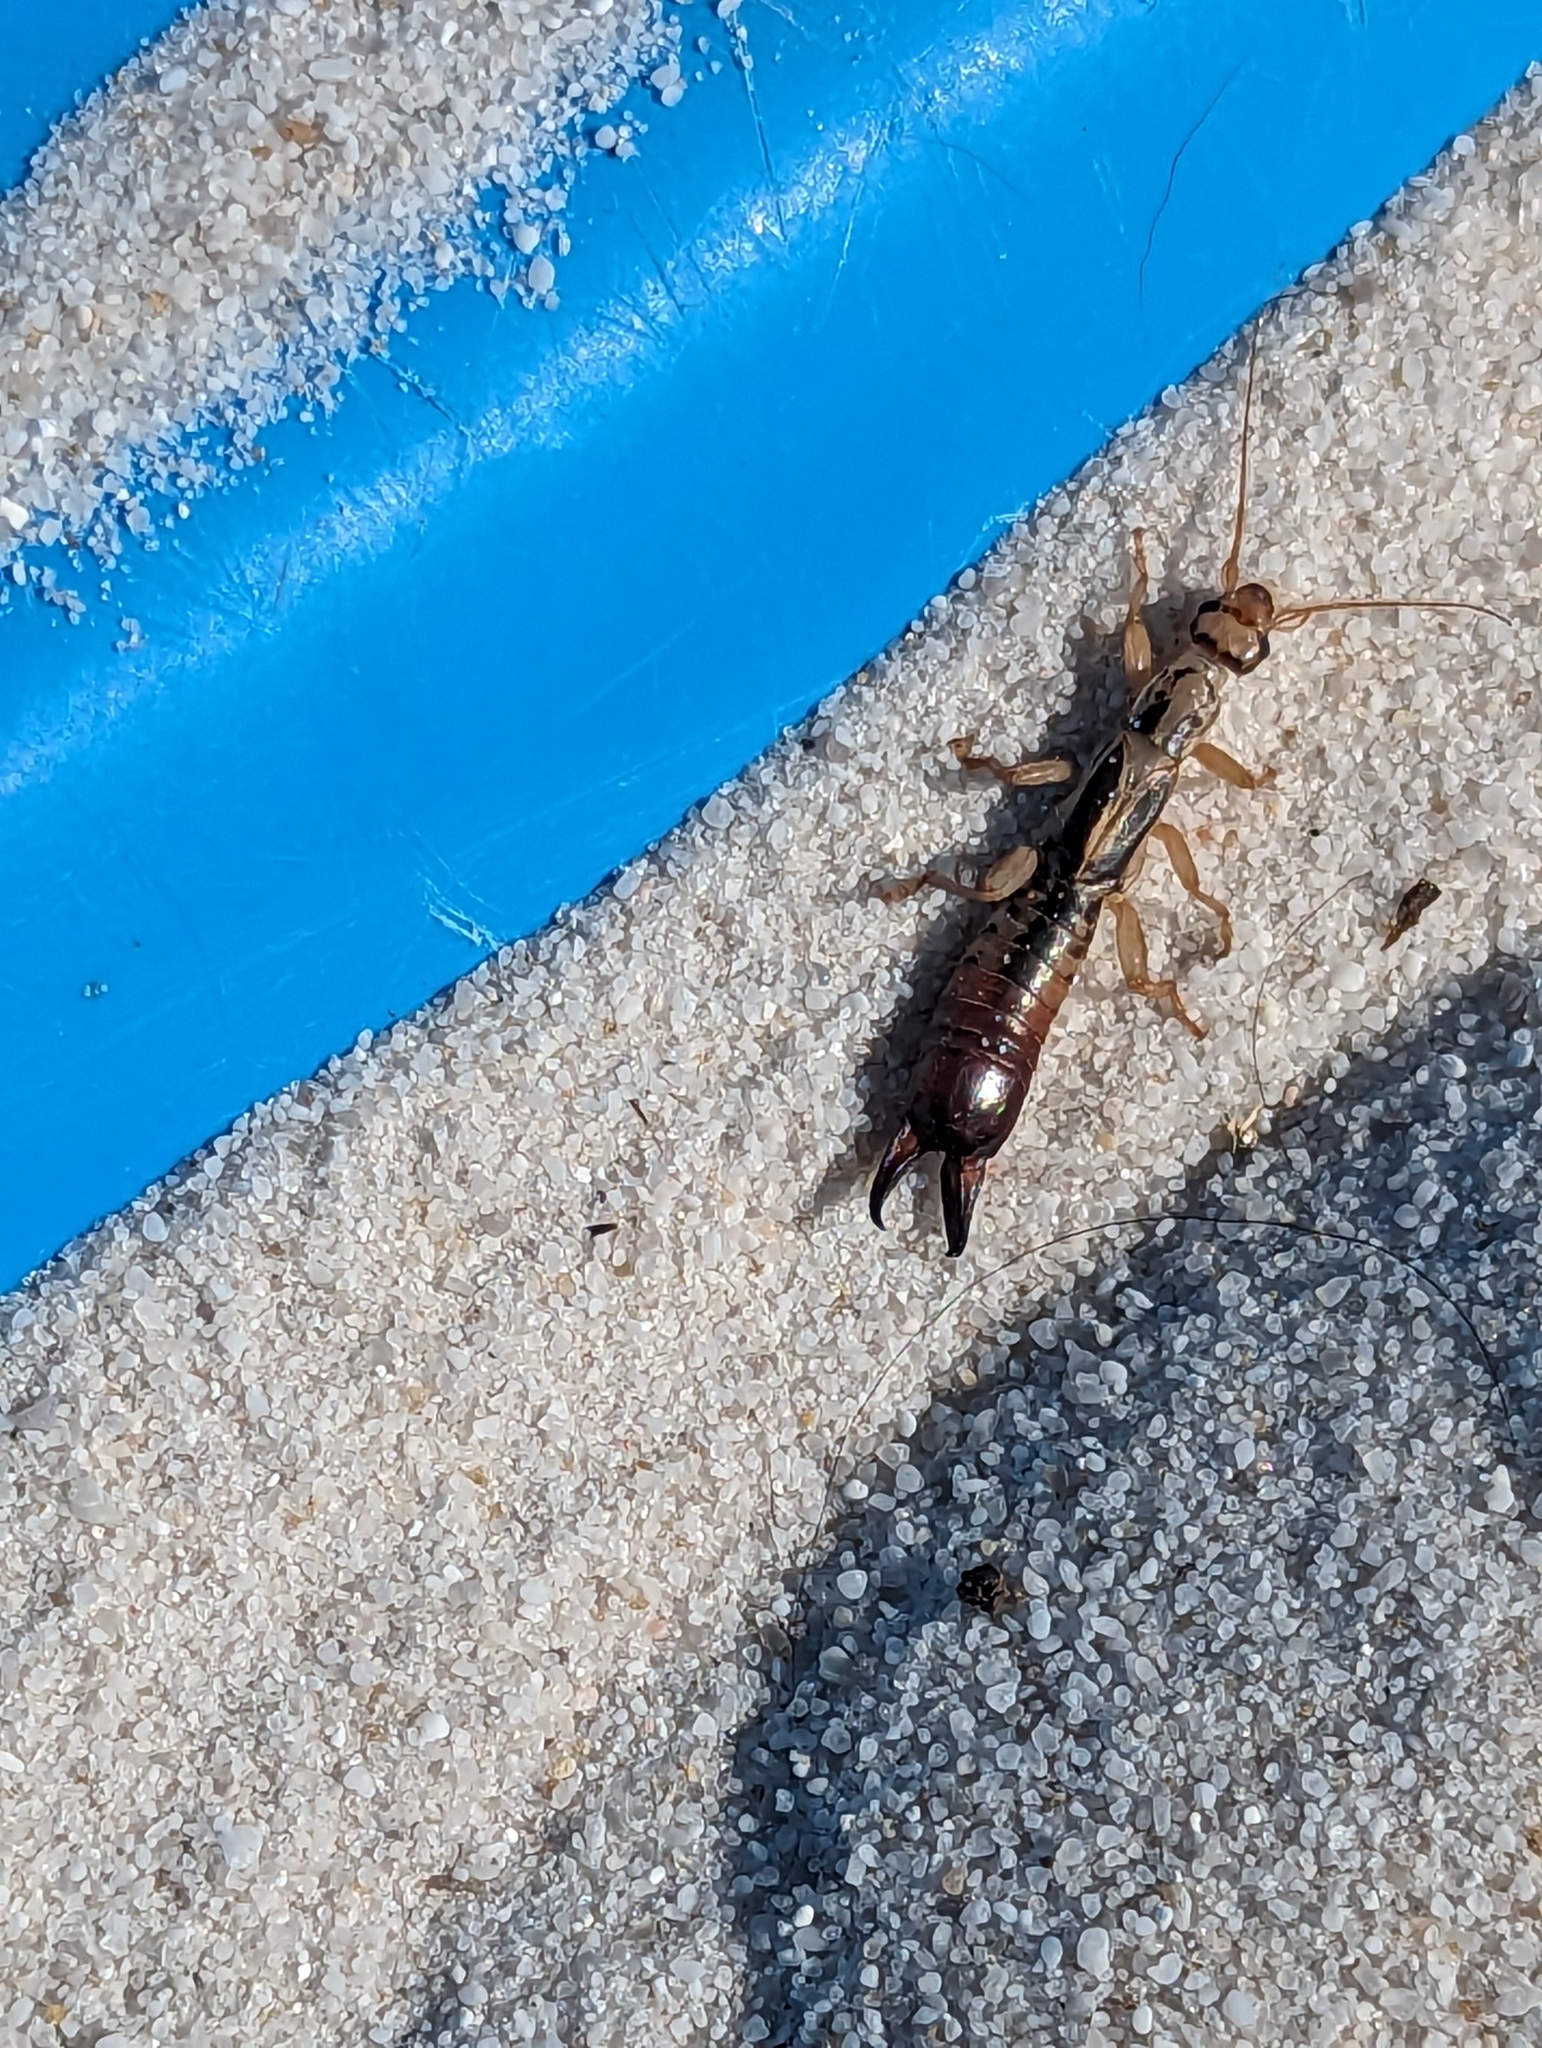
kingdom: Animalia
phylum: Arthropoda
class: Insecta
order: Dermaptera
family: Pygidicranidae
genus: Dacnodes
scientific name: Dacnodes shortridgei
